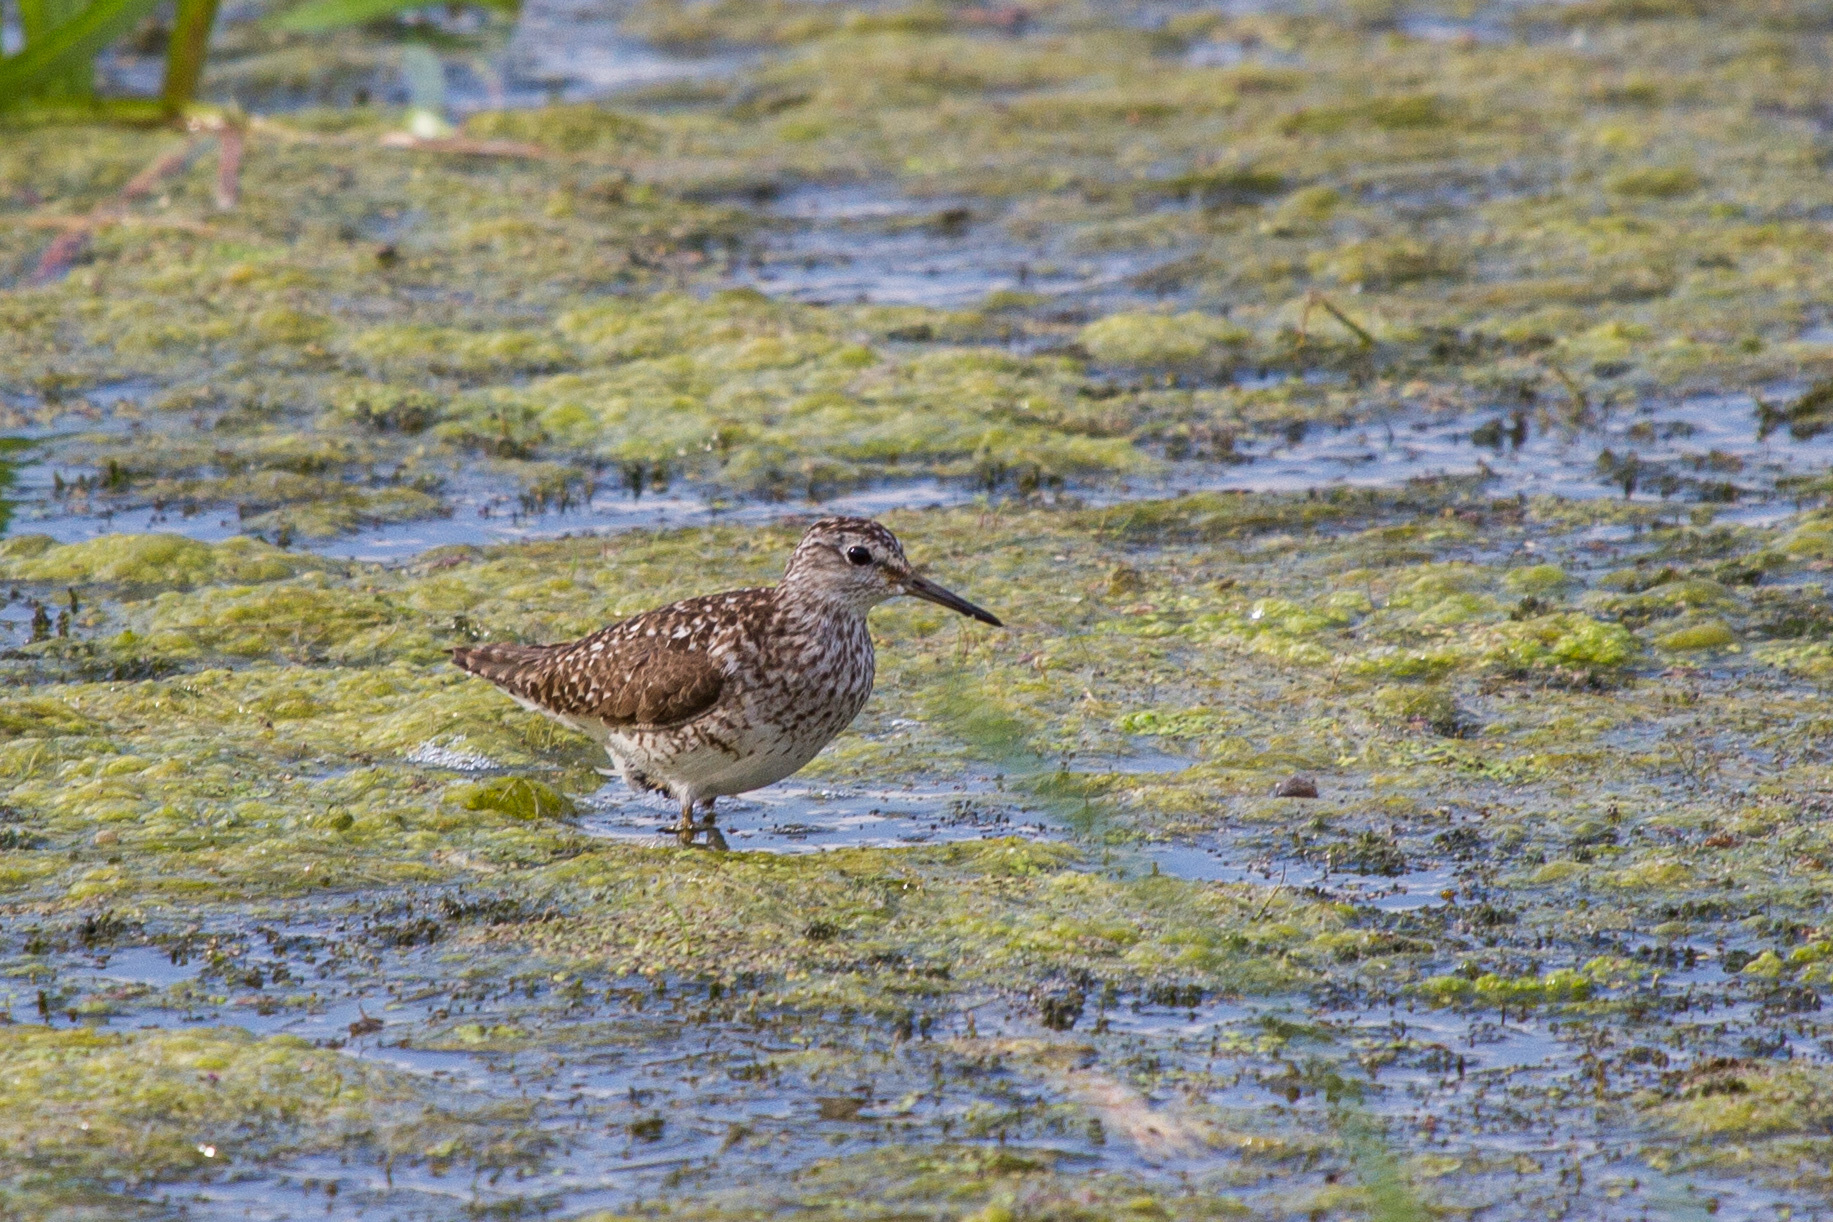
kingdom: Animalia
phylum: Chordata
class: Aves
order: Charadriiformes
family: Scolopacidae
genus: Tringa
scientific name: Tringa glareola
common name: Wood sandpiper
